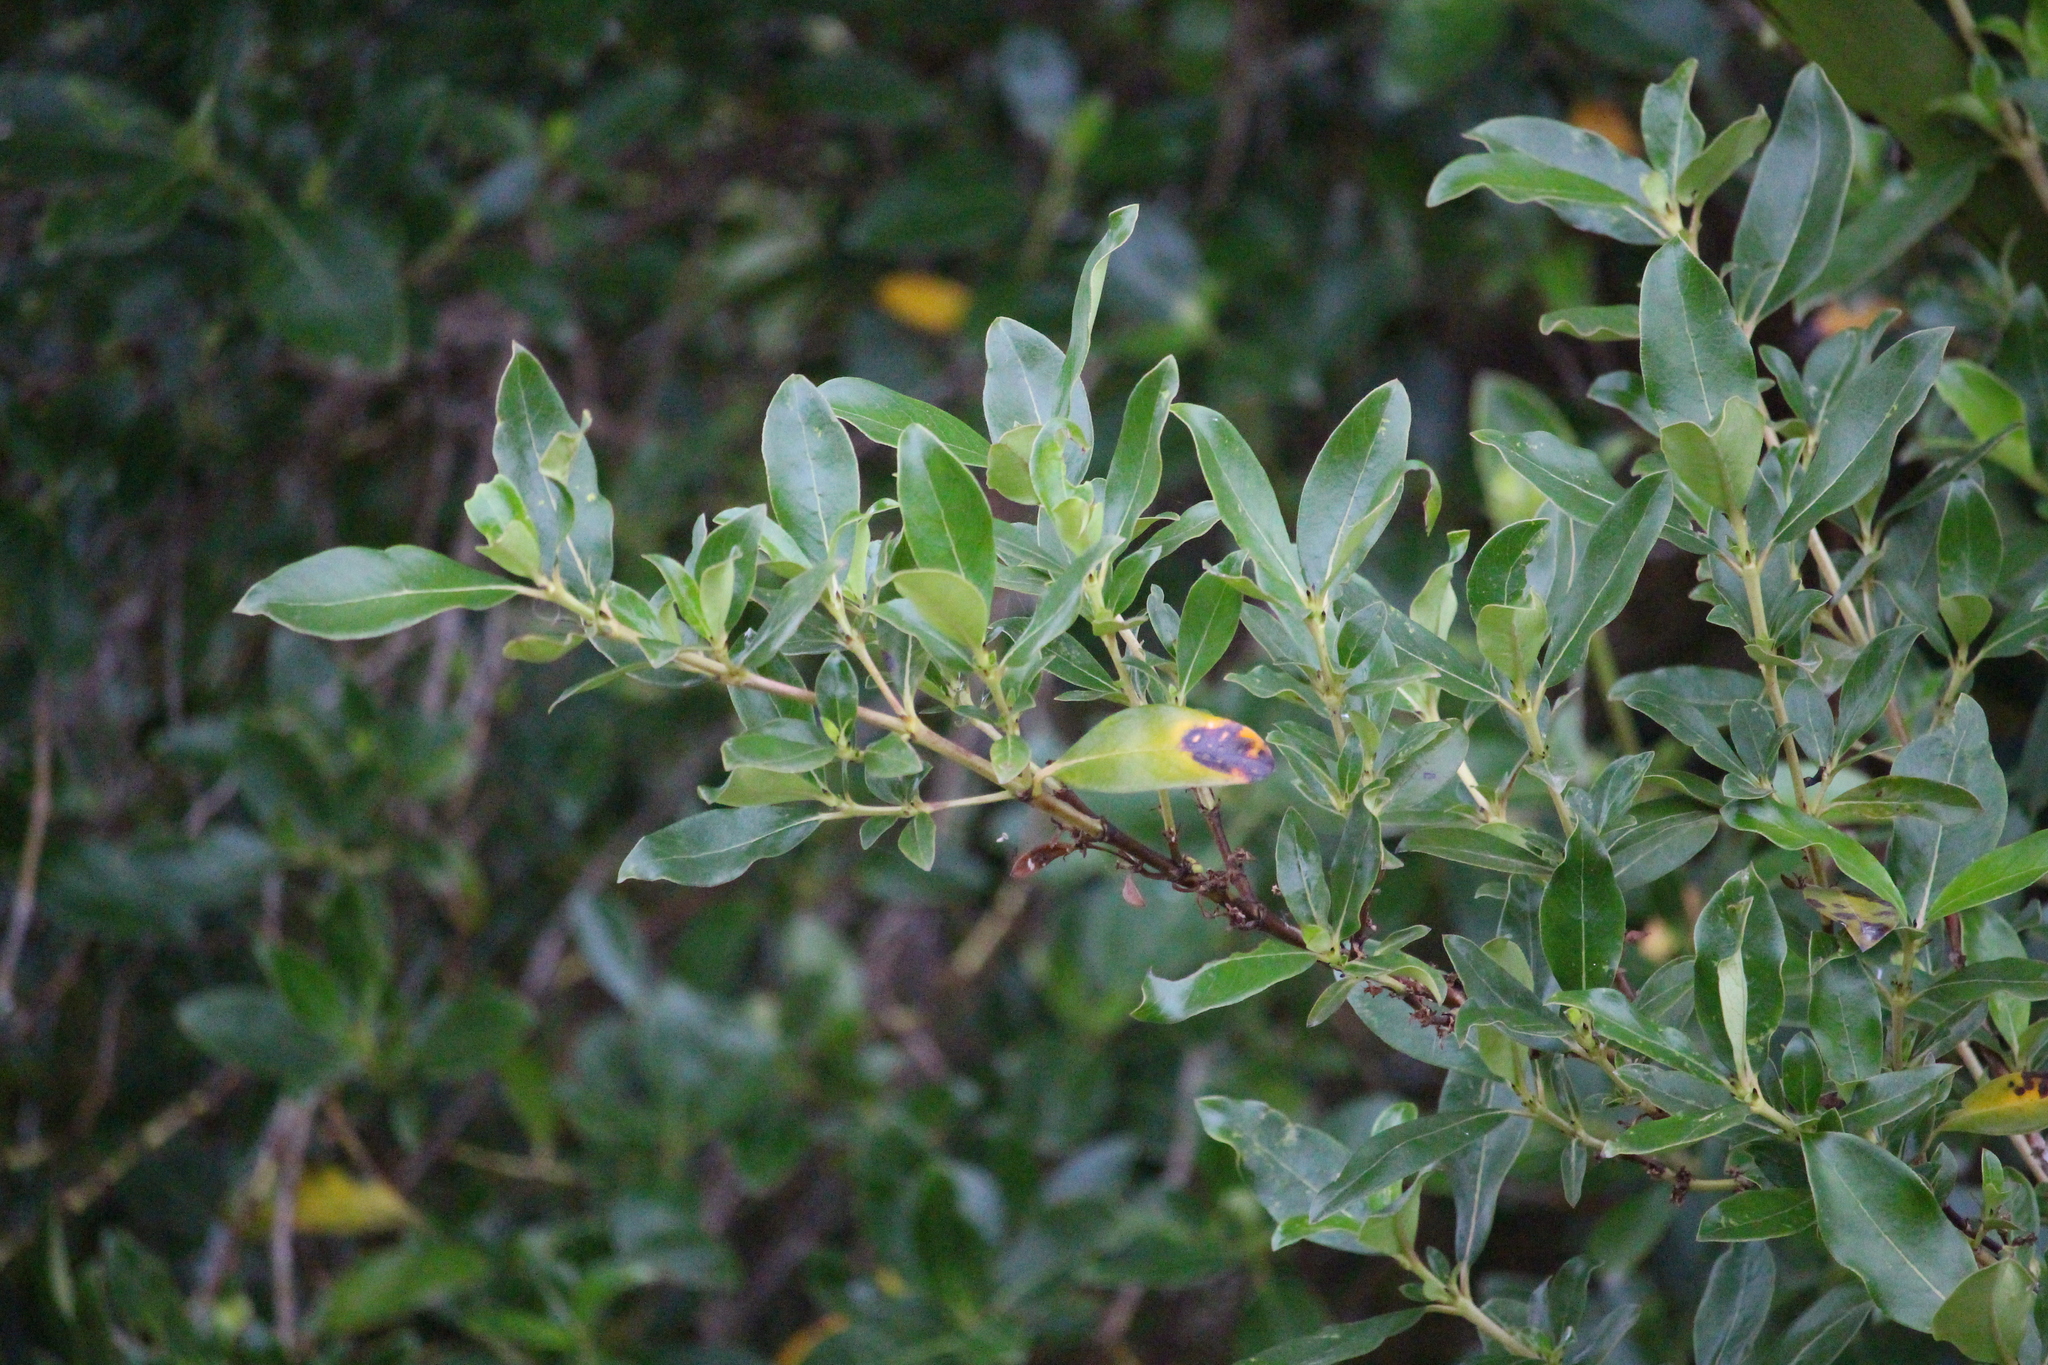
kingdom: Plantae
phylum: Tracheophyta
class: Magnoliopsida
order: Gentianales
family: Rubiaceae
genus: Coprosma
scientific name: Coprosma robusta
